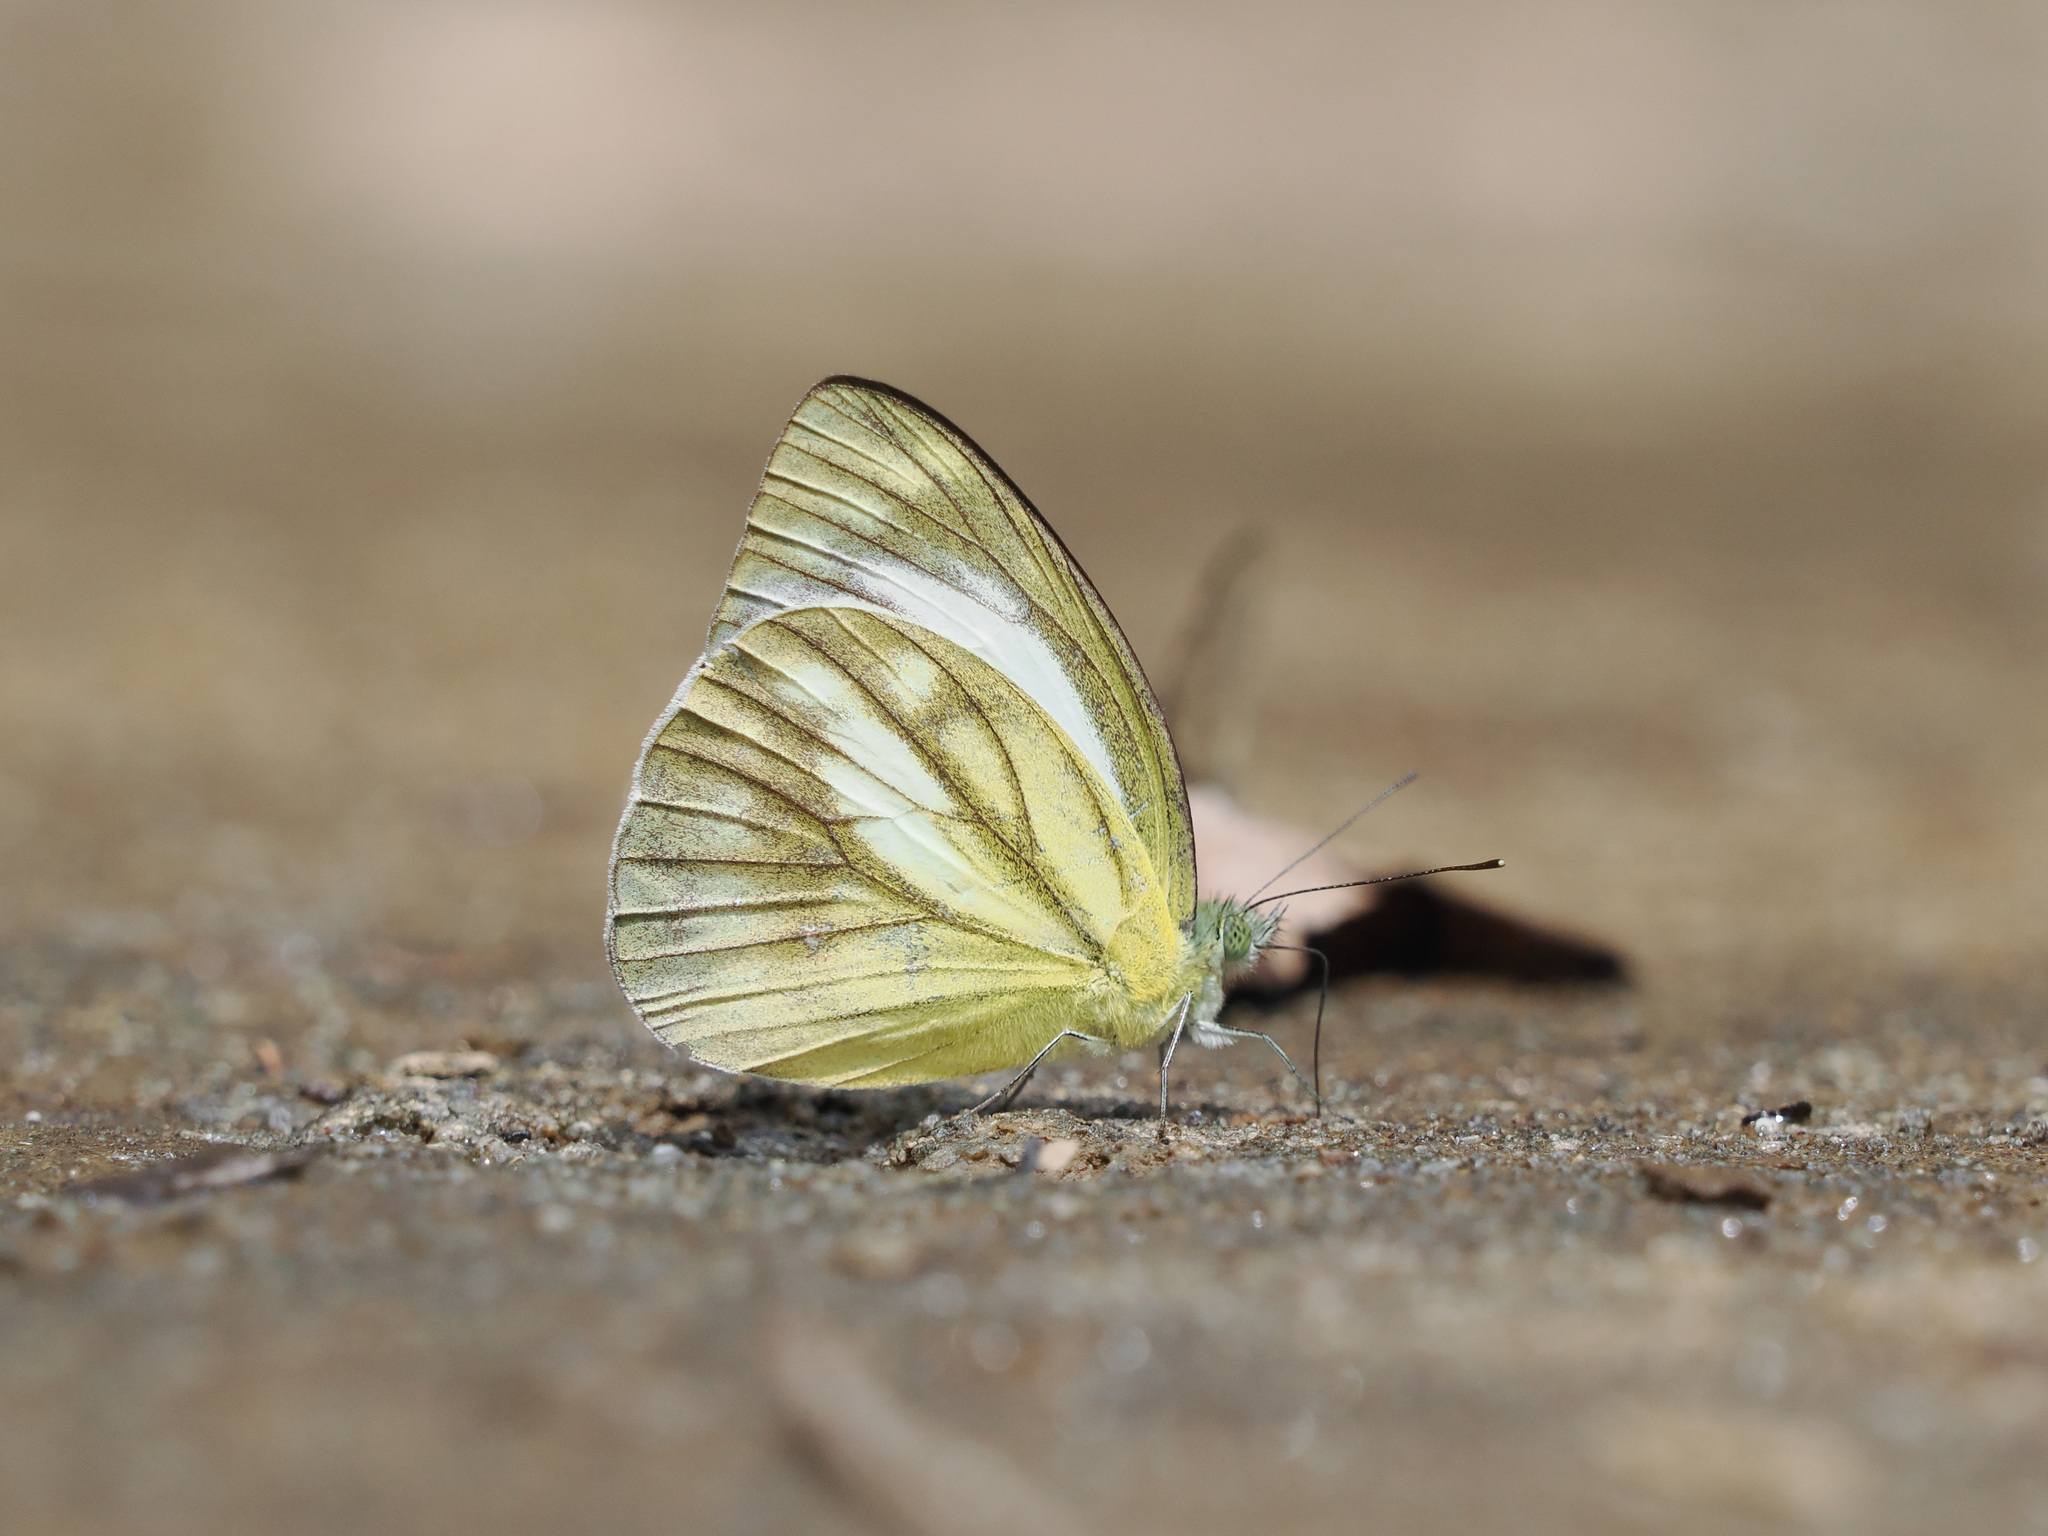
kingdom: Animalia
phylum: Arthropoda
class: Insecta
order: Lepidoptera
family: Pieridae
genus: Cepora
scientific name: Cepora nadina
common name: Lesser gull
